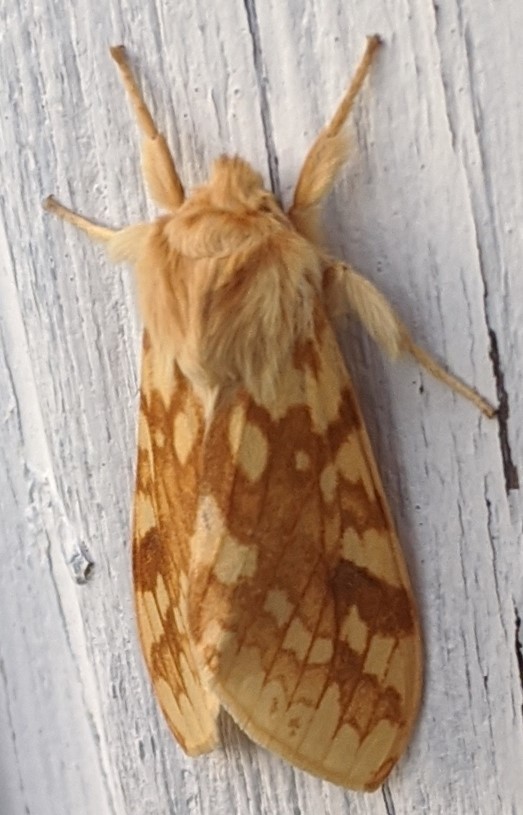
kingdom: Animalia
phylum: Arthropoda
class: Insecta
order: Lepidoptera
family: Erebidae
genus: Lophocampa
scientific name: Lophocampa maculata
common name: Spotted tussock moth
